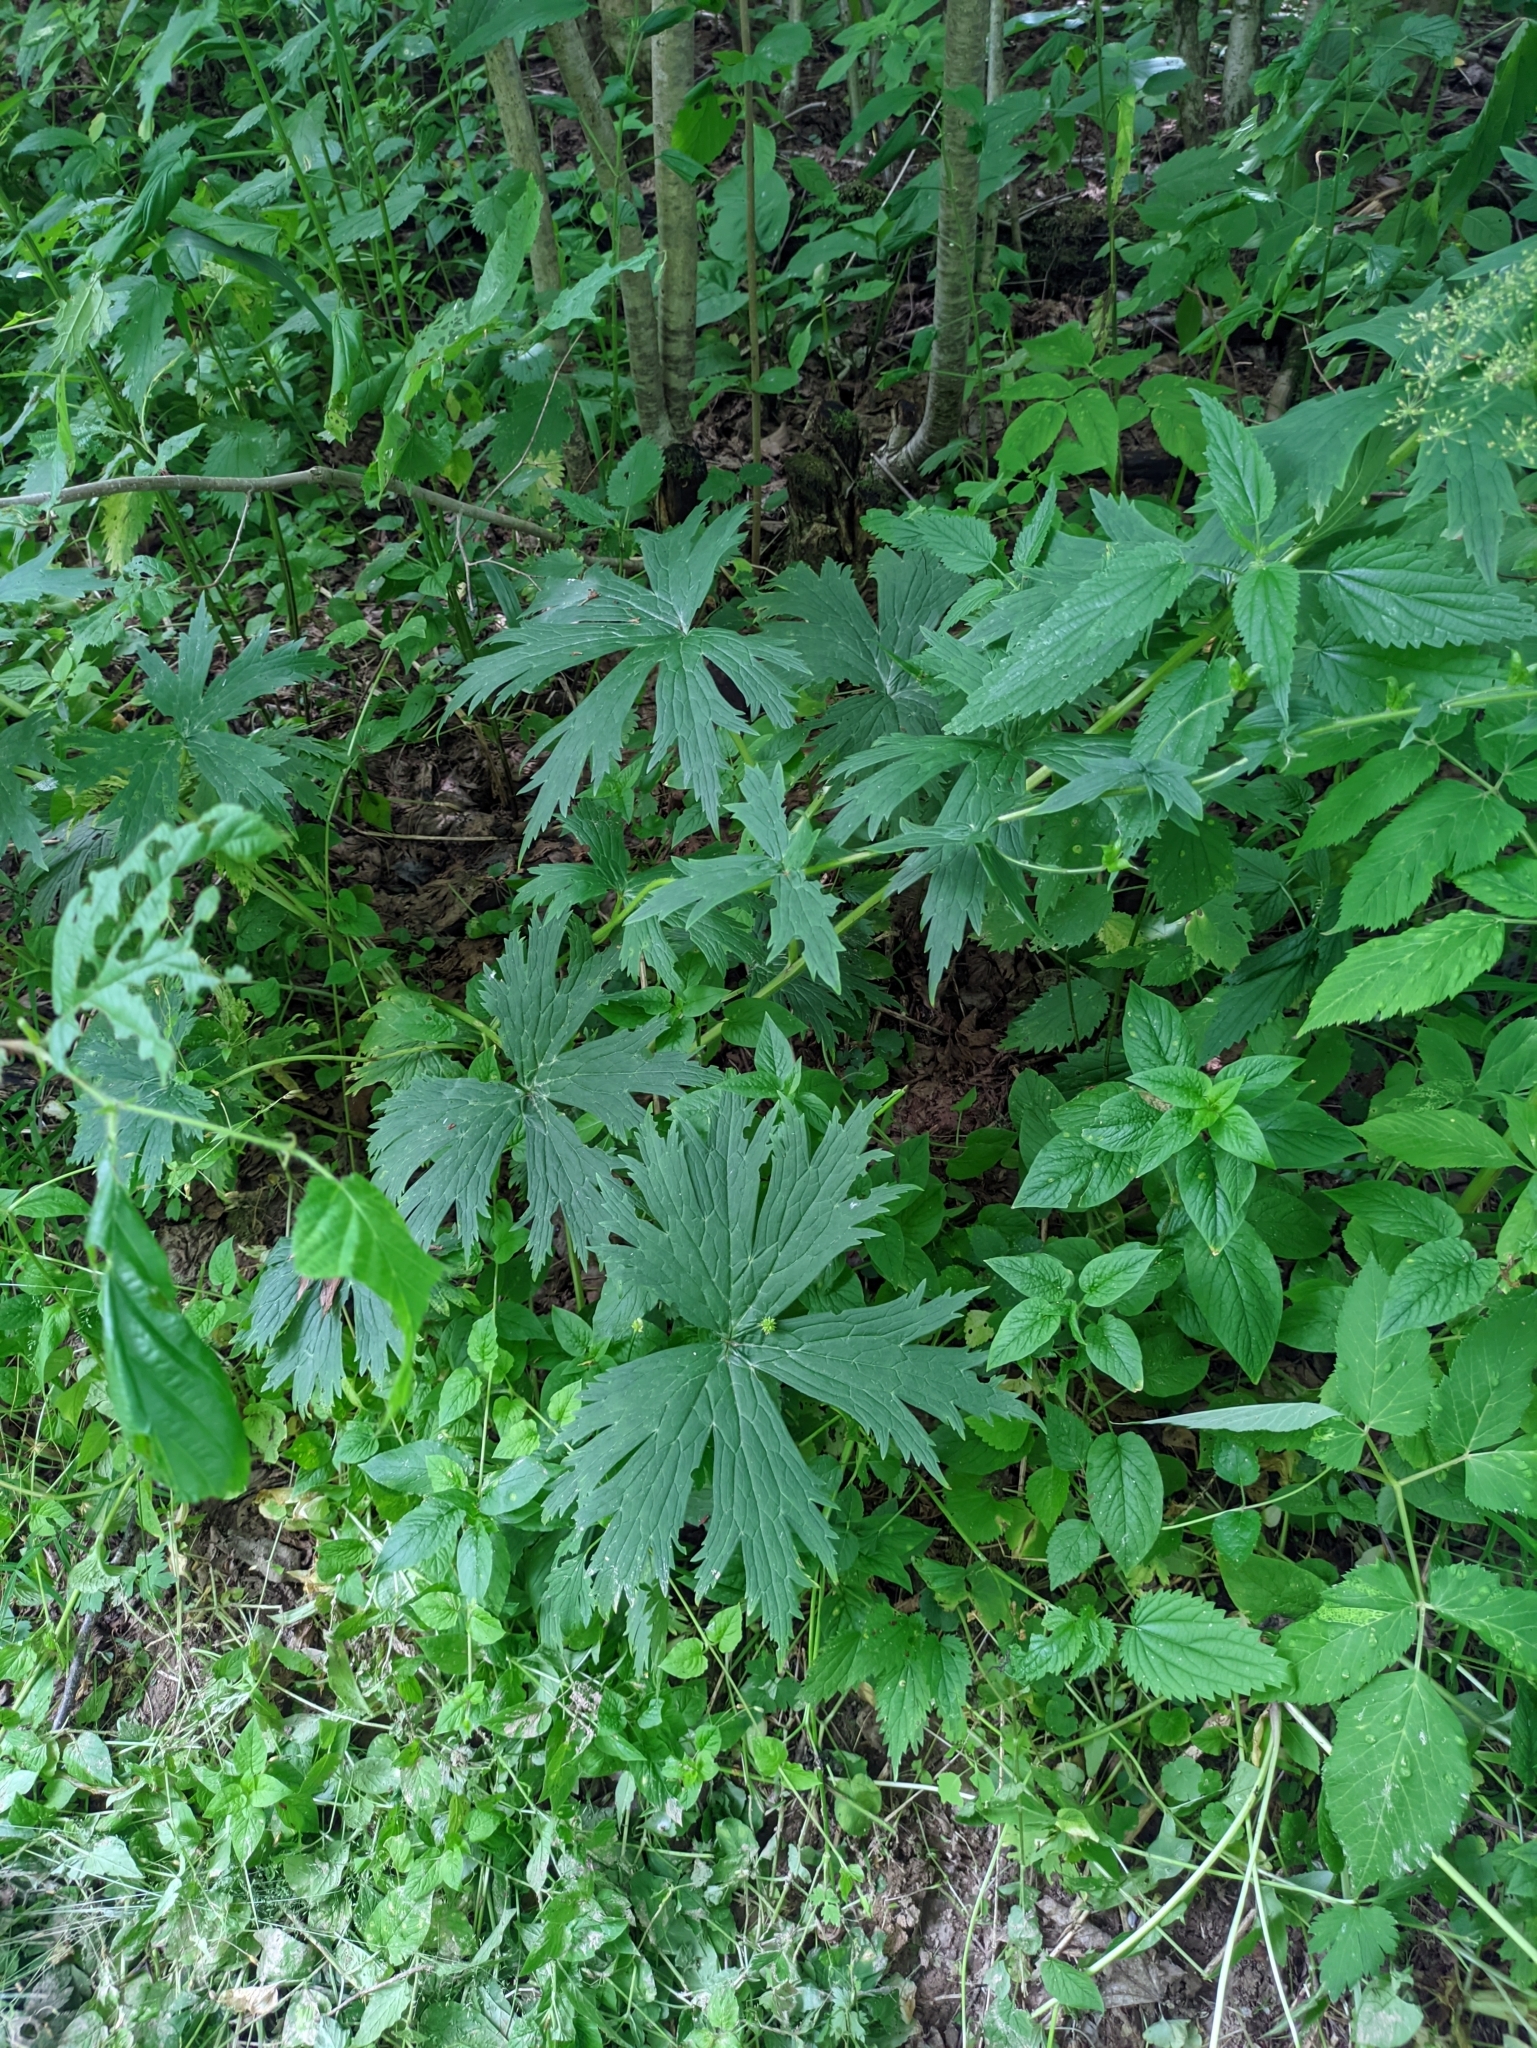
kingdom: Plantae
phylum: Tracheophyta
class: Magnoliopsida
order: Ranunculales
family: Ranunculaceae
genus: Aconitum
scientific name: Aconitum septentrionale
